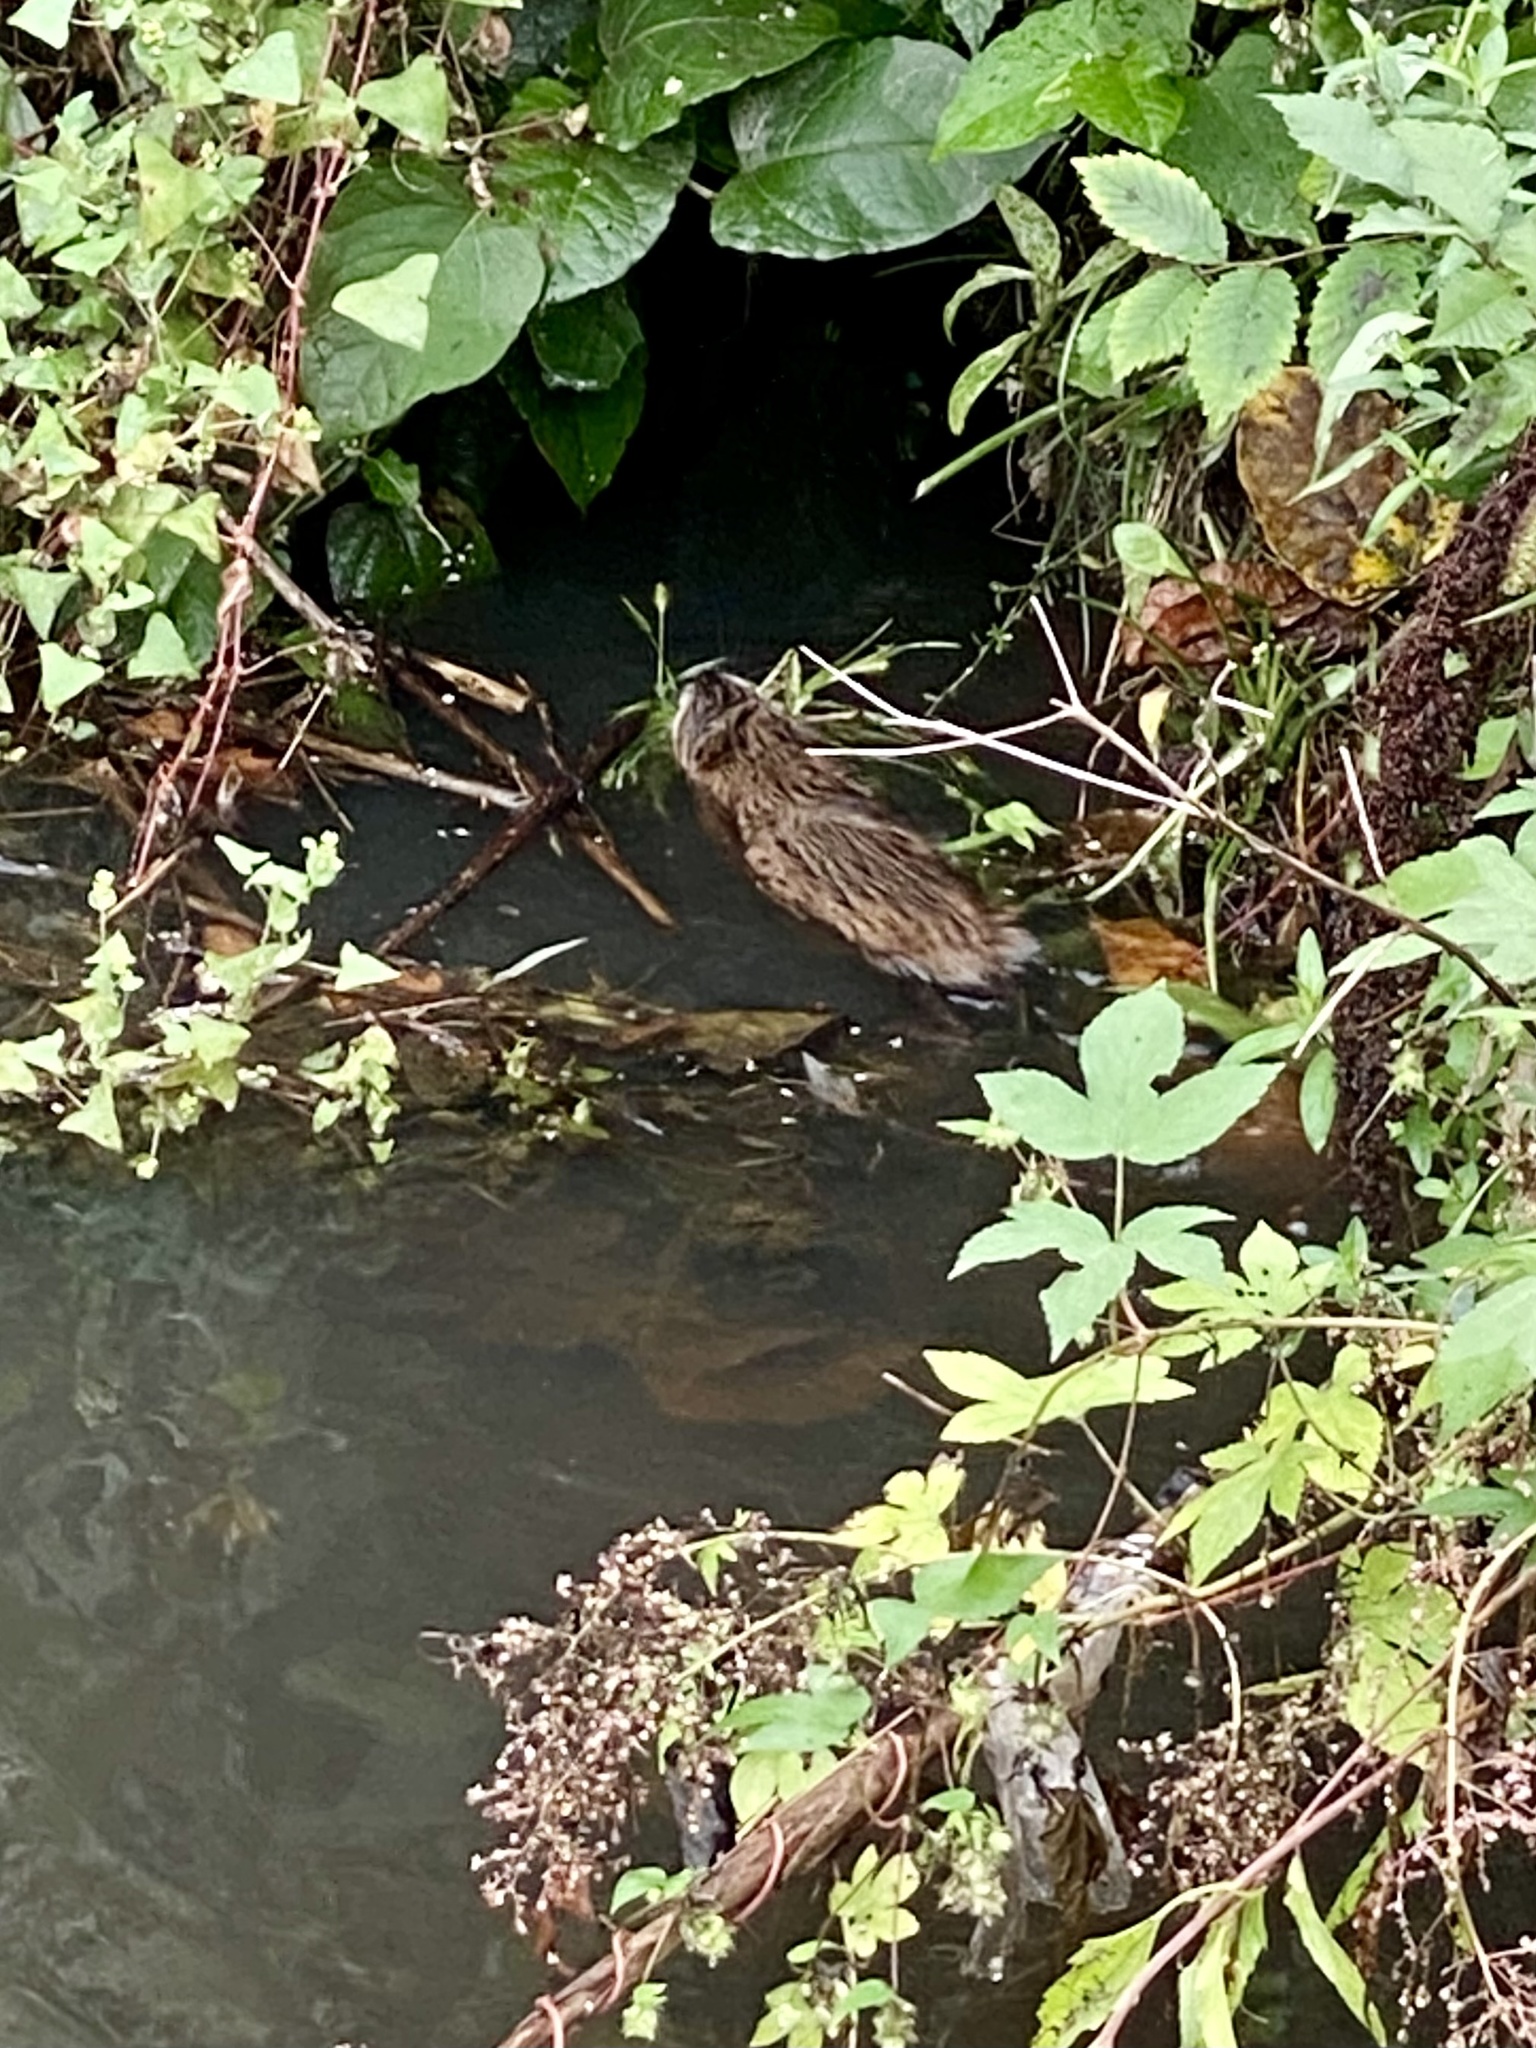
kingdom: Animalia
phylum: Chordata
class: Mammalia
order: Rodentia
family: Cricetidae
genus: Ondatra
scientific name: Ondatra zibethicus
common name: Muskrat
